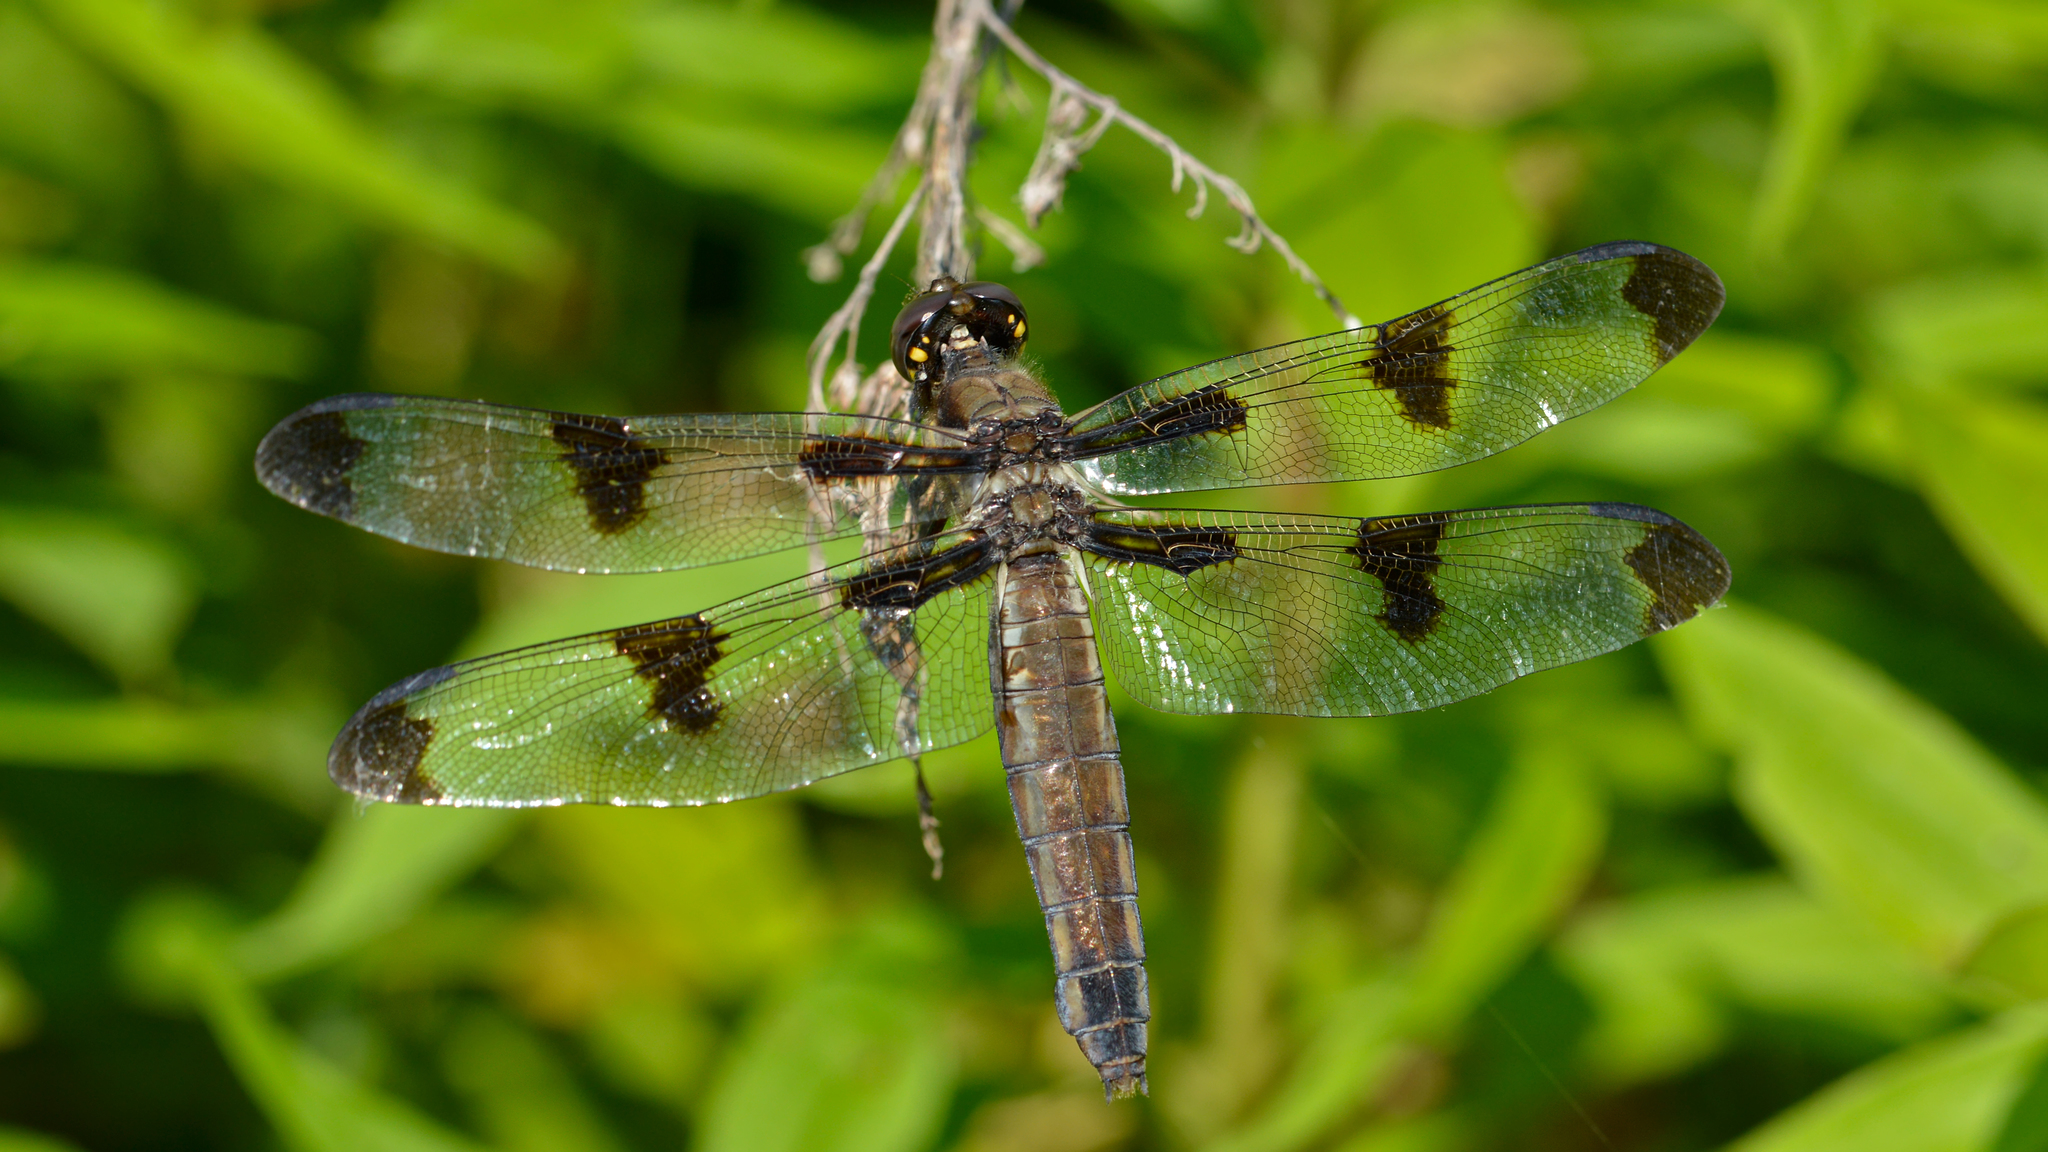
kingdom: Animalia
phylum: Arthropoda
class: Insecta
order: Odonata
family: Libellulidae
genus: Libellula
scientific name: Libellula pulchella
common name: Twelve-spotted skimmer
